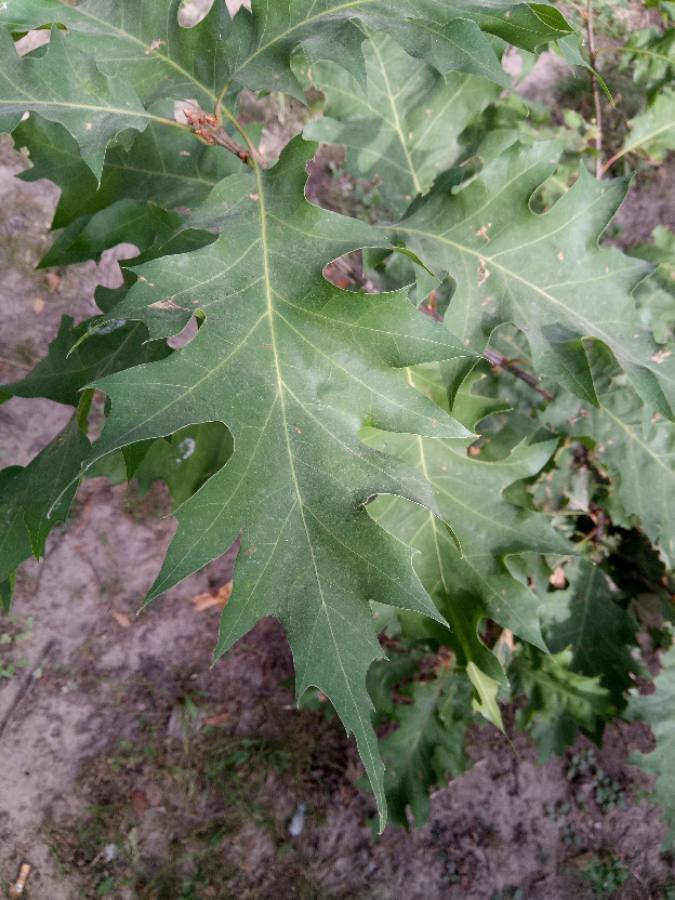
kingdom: Plantae
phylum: Tracheophyta
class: Magnoliopsida
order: Fagales
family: Fagaceae
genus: Quercus
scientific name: Quercus rubra
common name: Red oak
